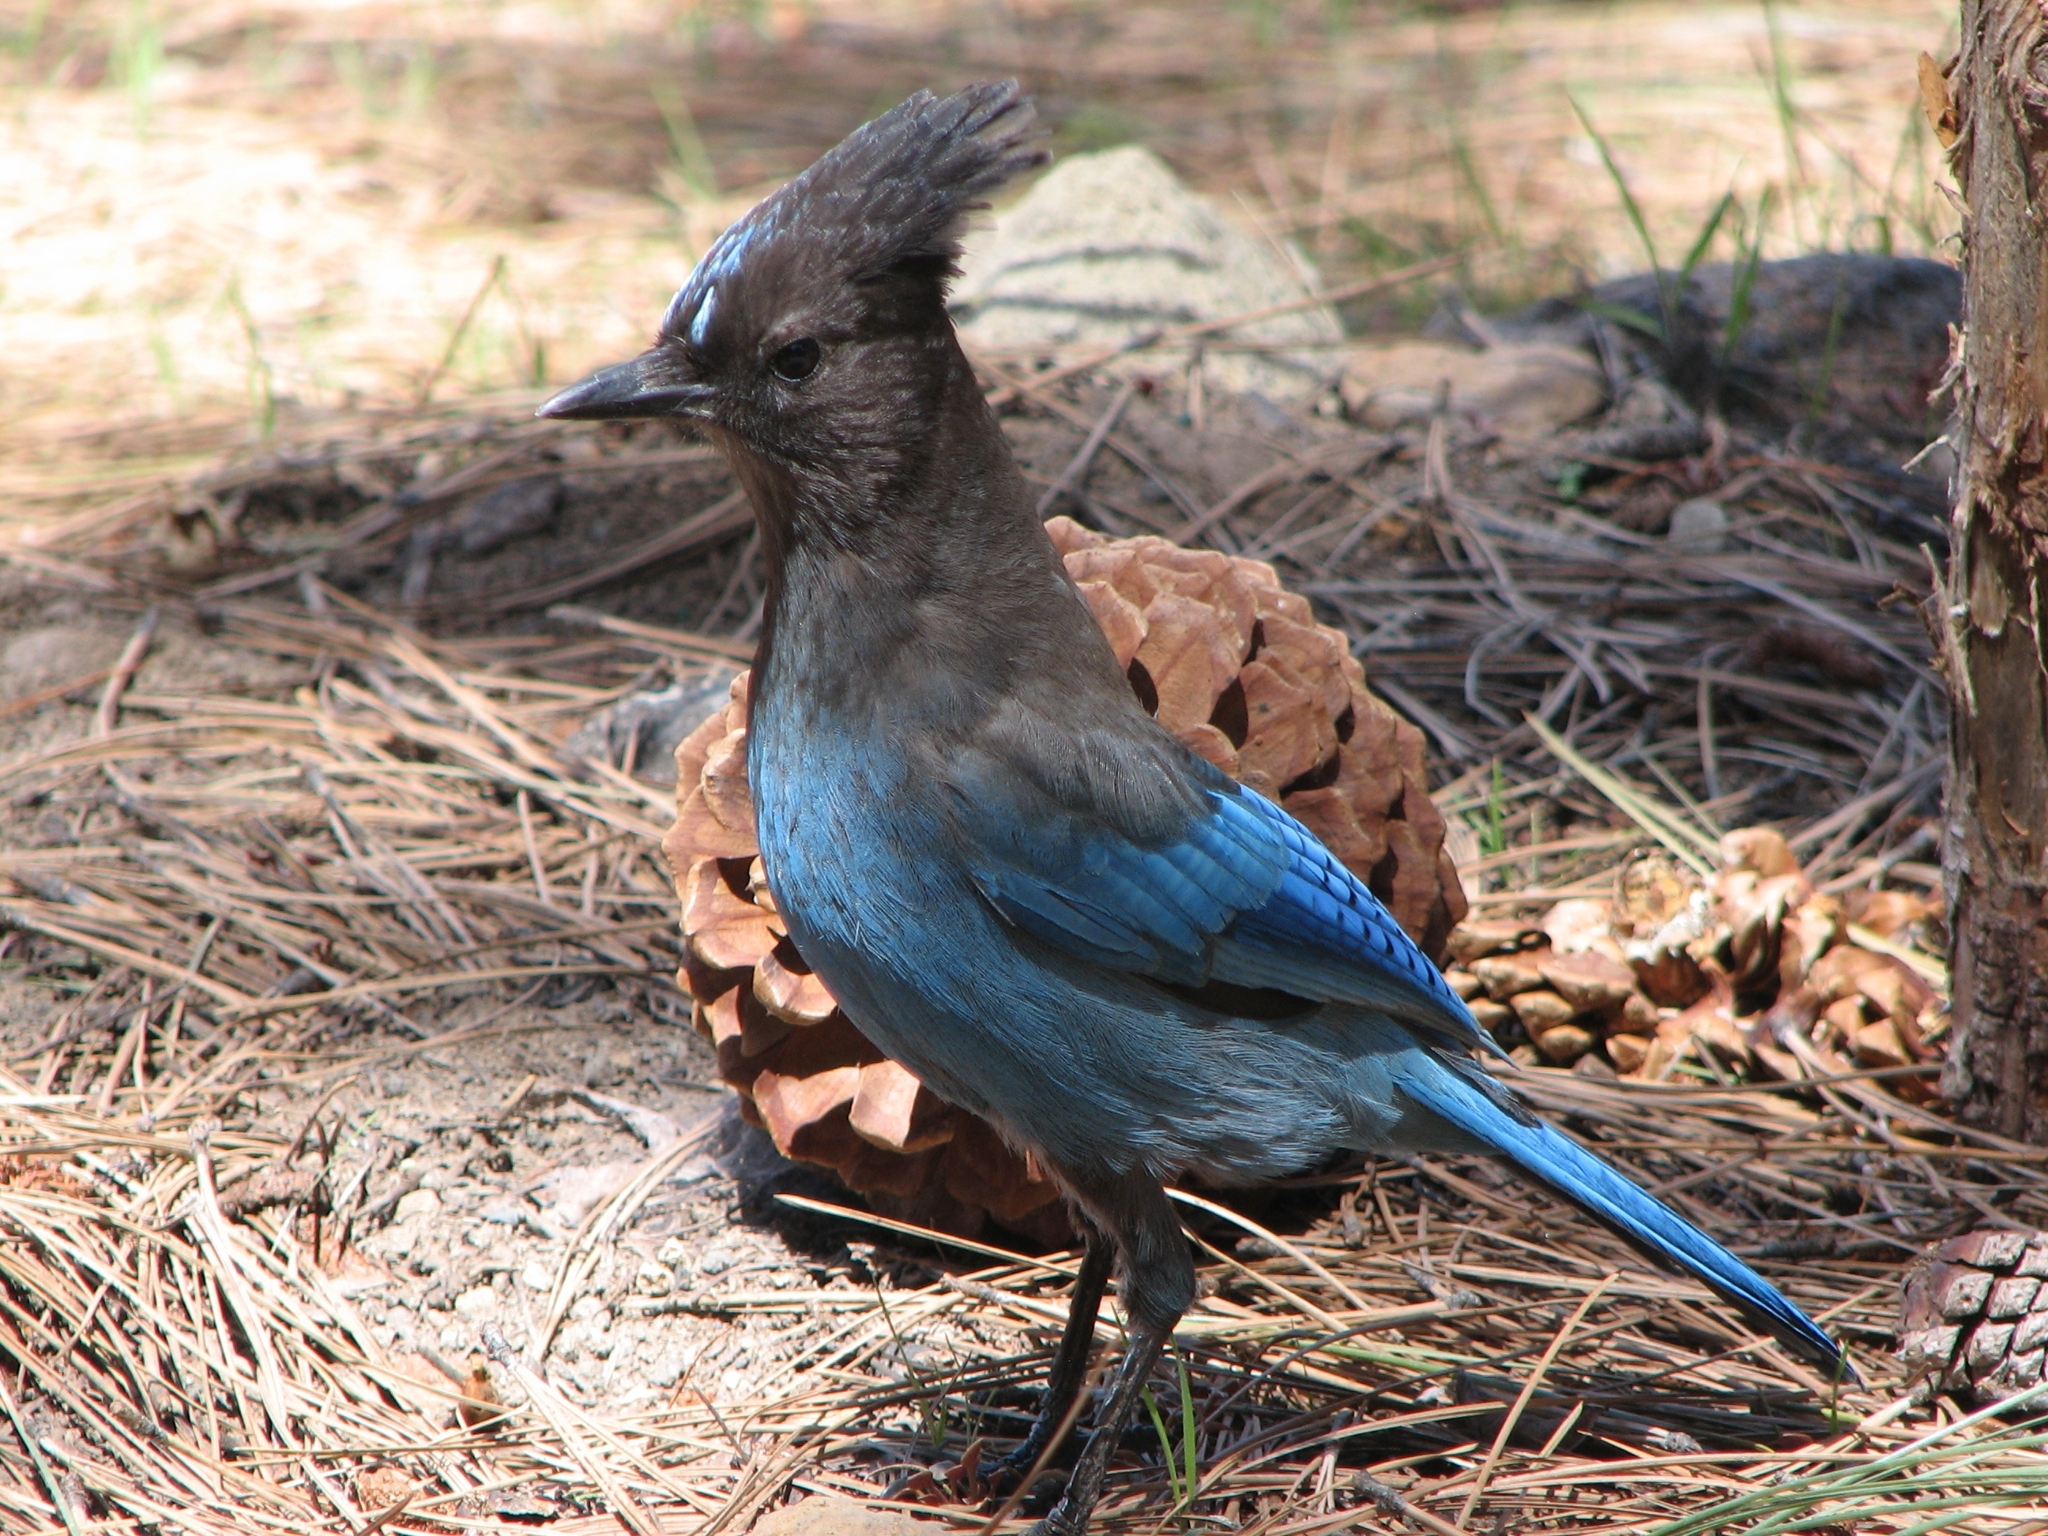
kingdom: Animalia
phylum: Chordata
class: Aves
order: Passeriformes
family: Corvidae
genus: Cyanocitta
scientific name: Cyanocitta stelleri
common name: Steller's jay
